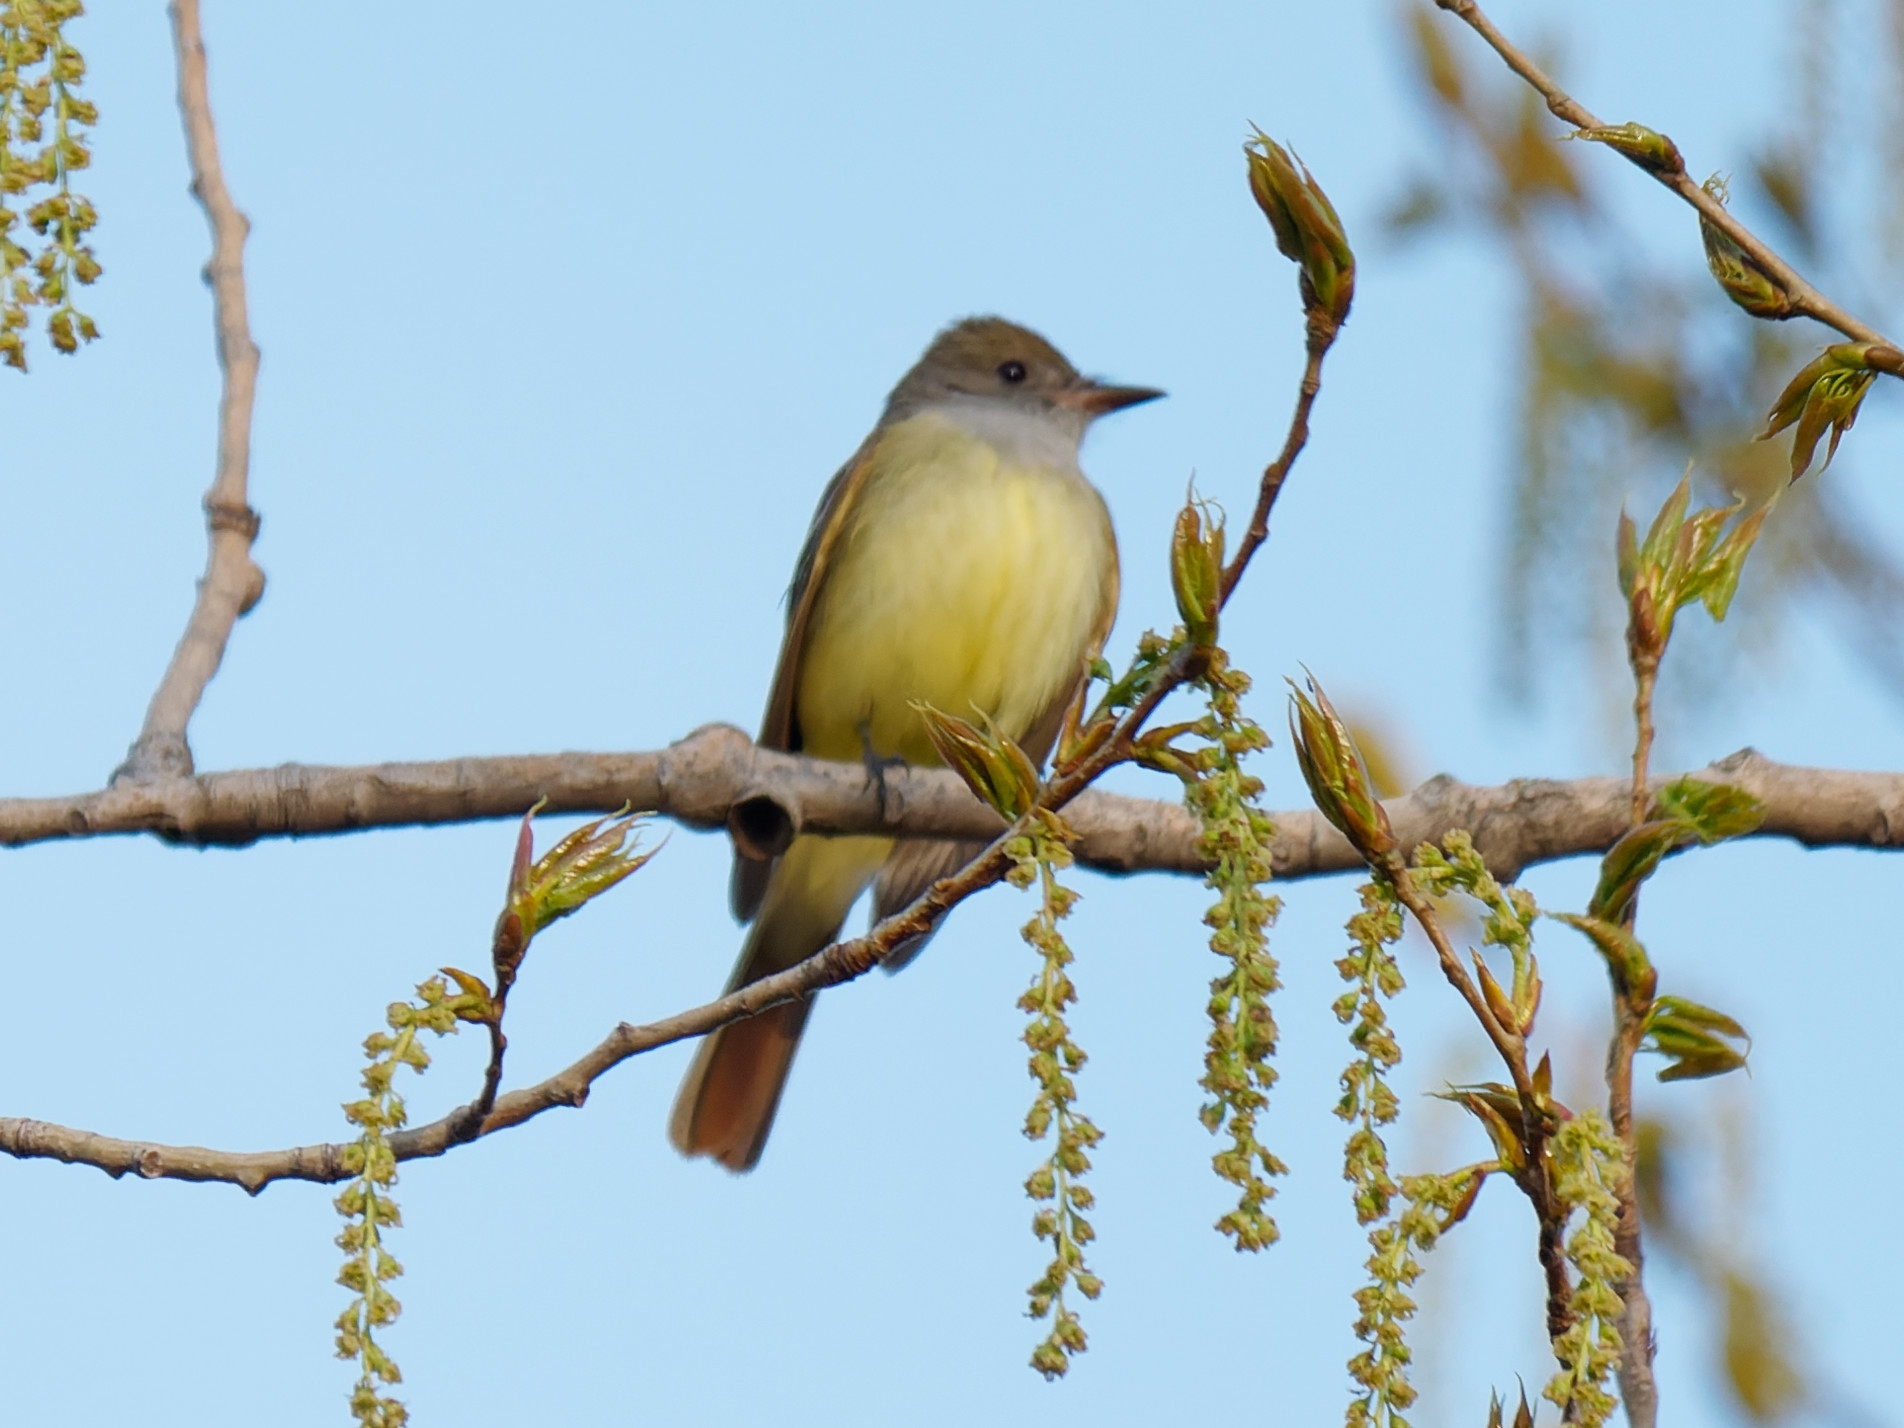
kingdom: Animalia
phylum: Chordata
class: Aves
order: Passeriformes
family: Tyrannidae
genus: Myiarchus
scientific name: Myiarchus crinitus
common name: Great crested flycatcher
